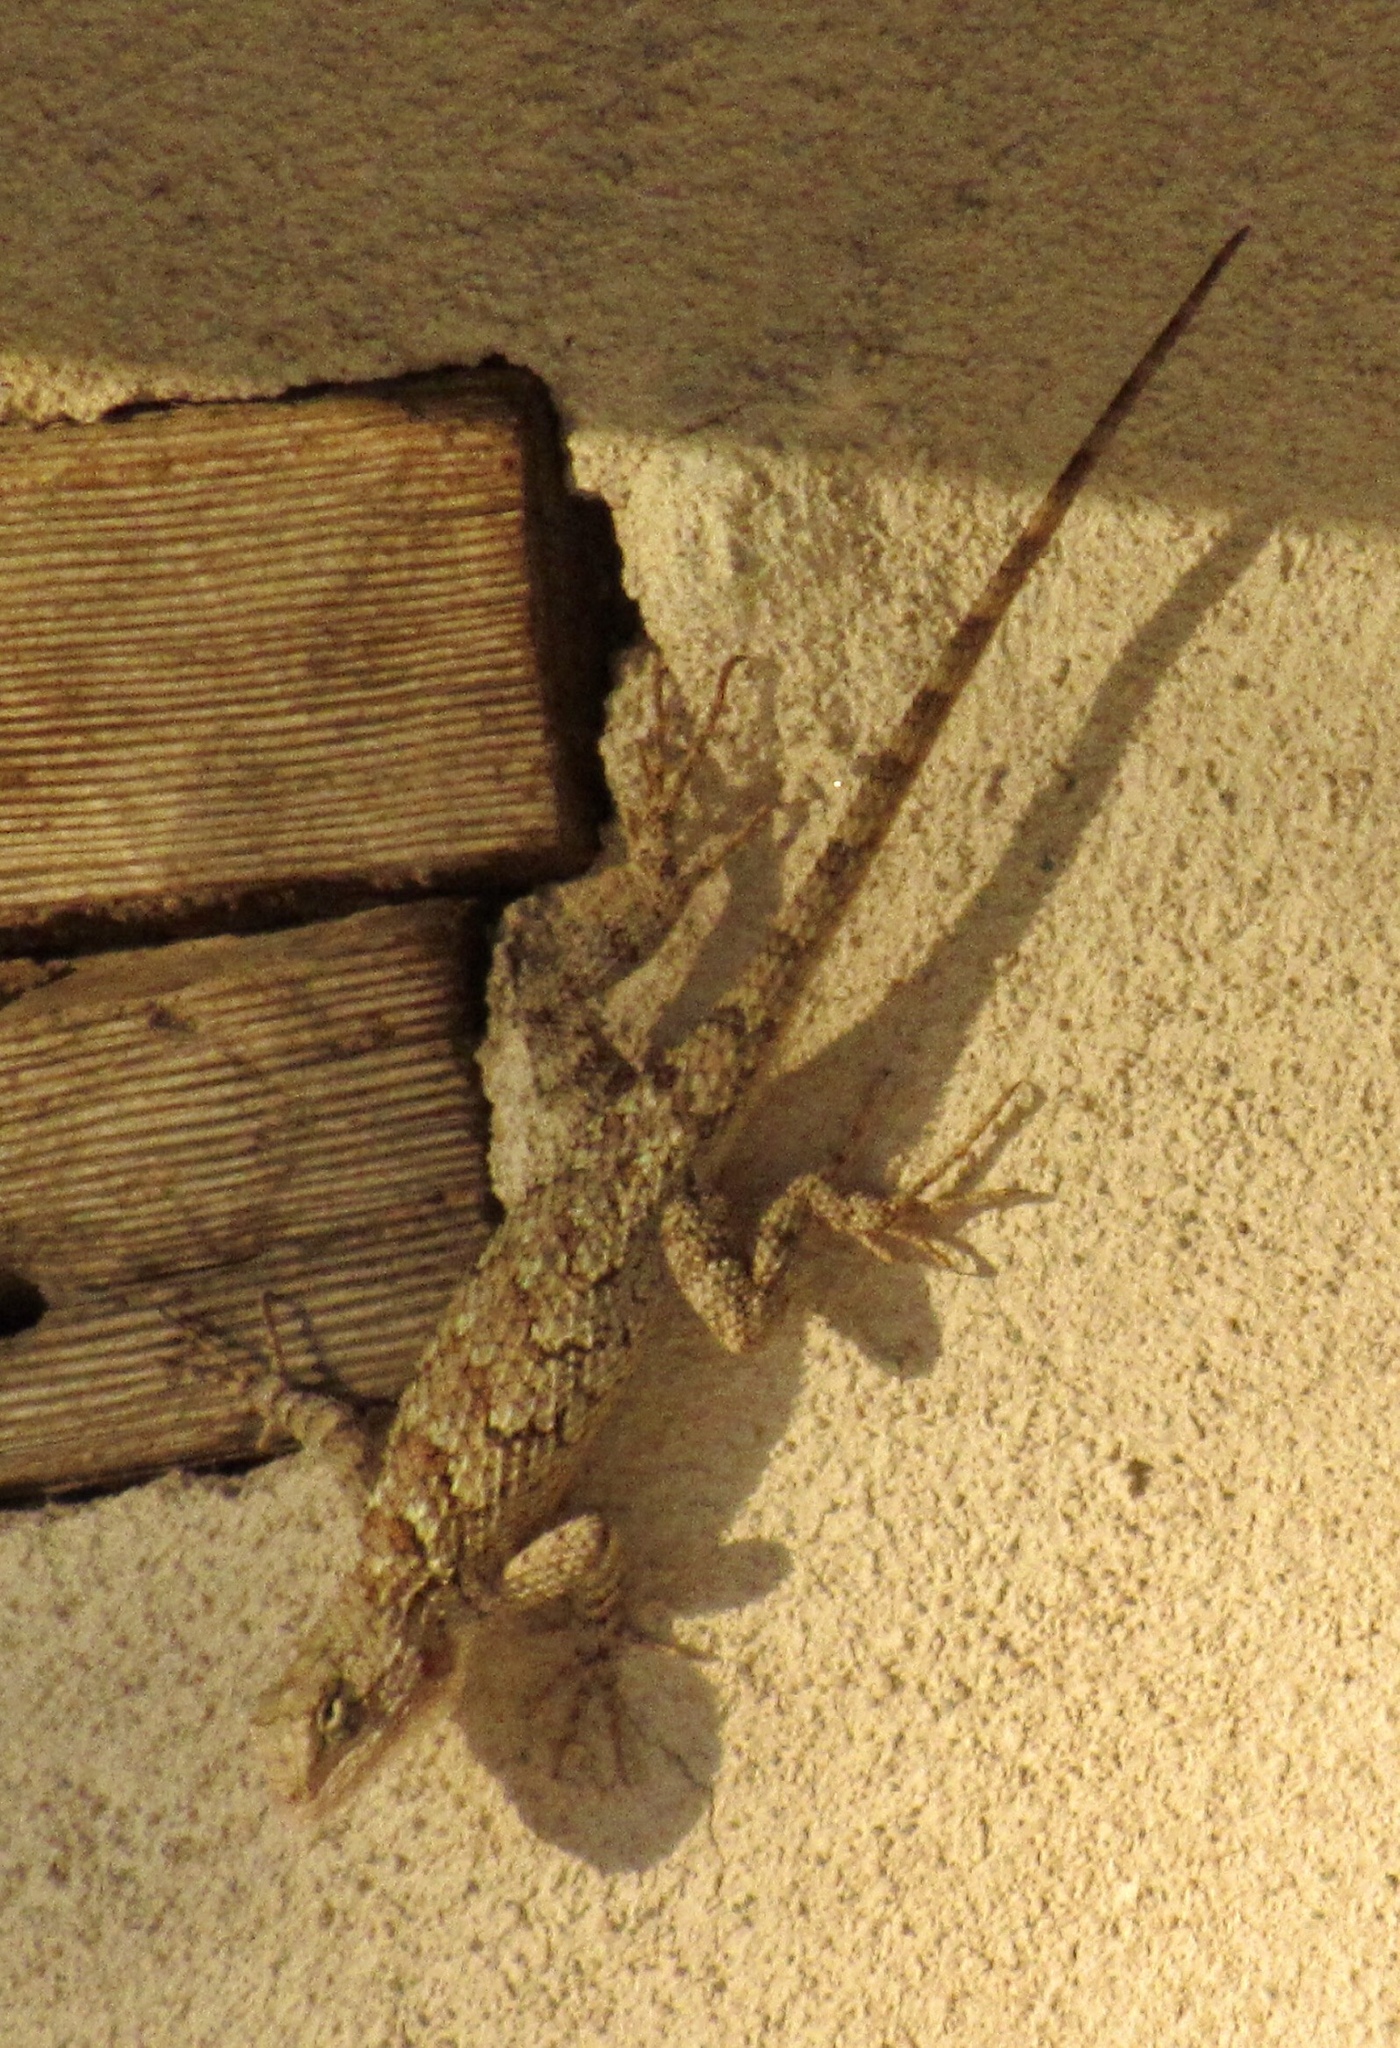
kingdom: Animalia
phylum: Chordata
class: Squamata
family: Phrynosomatidae
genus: Sceloporus
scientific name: Sceloporus clarkii
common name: Clark's spiny lizard
